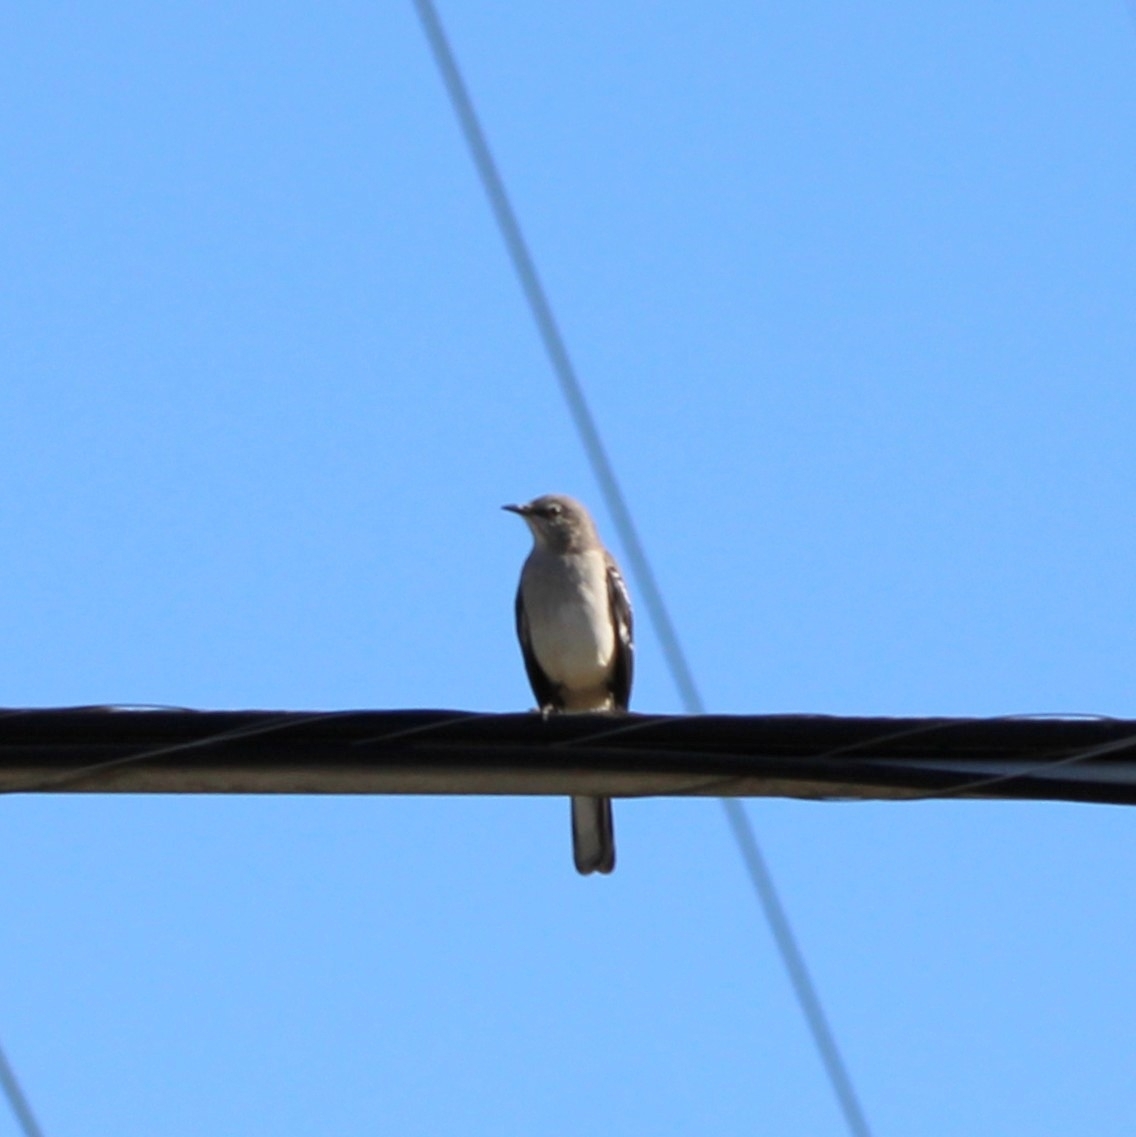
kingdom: Animalia
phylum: Chordata
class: Aves
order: Passeriformes
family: Mimidae
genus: Mimus
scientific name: Mimus polyglottos
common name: Northern mockingbird
